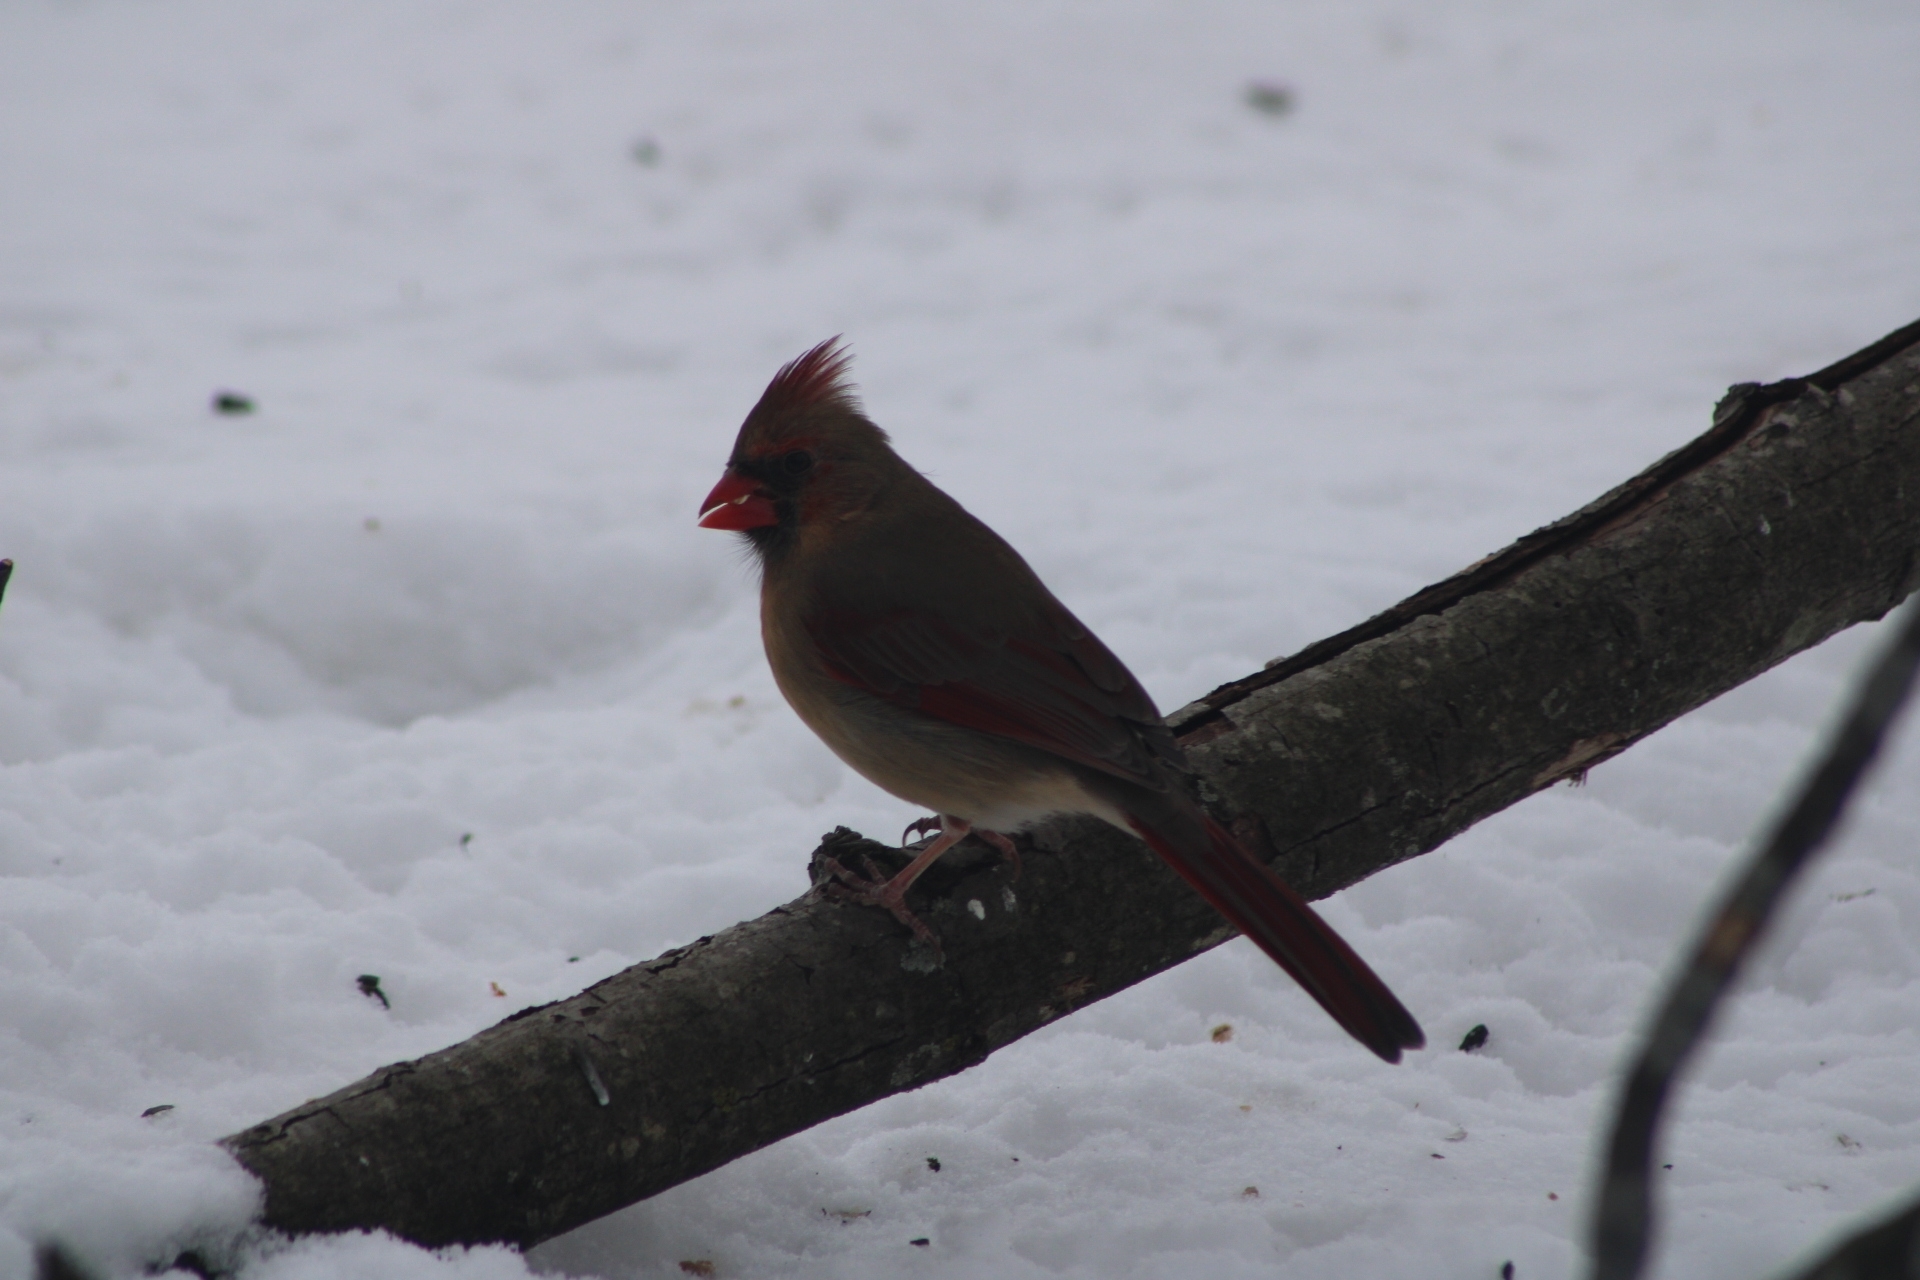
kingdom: Animalia
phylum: Chordata
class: Aves
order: Passeriformes
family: Cardinalidae
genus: Cardinalis
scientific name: Cardinalis cardinalis
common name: Northern cardinal
